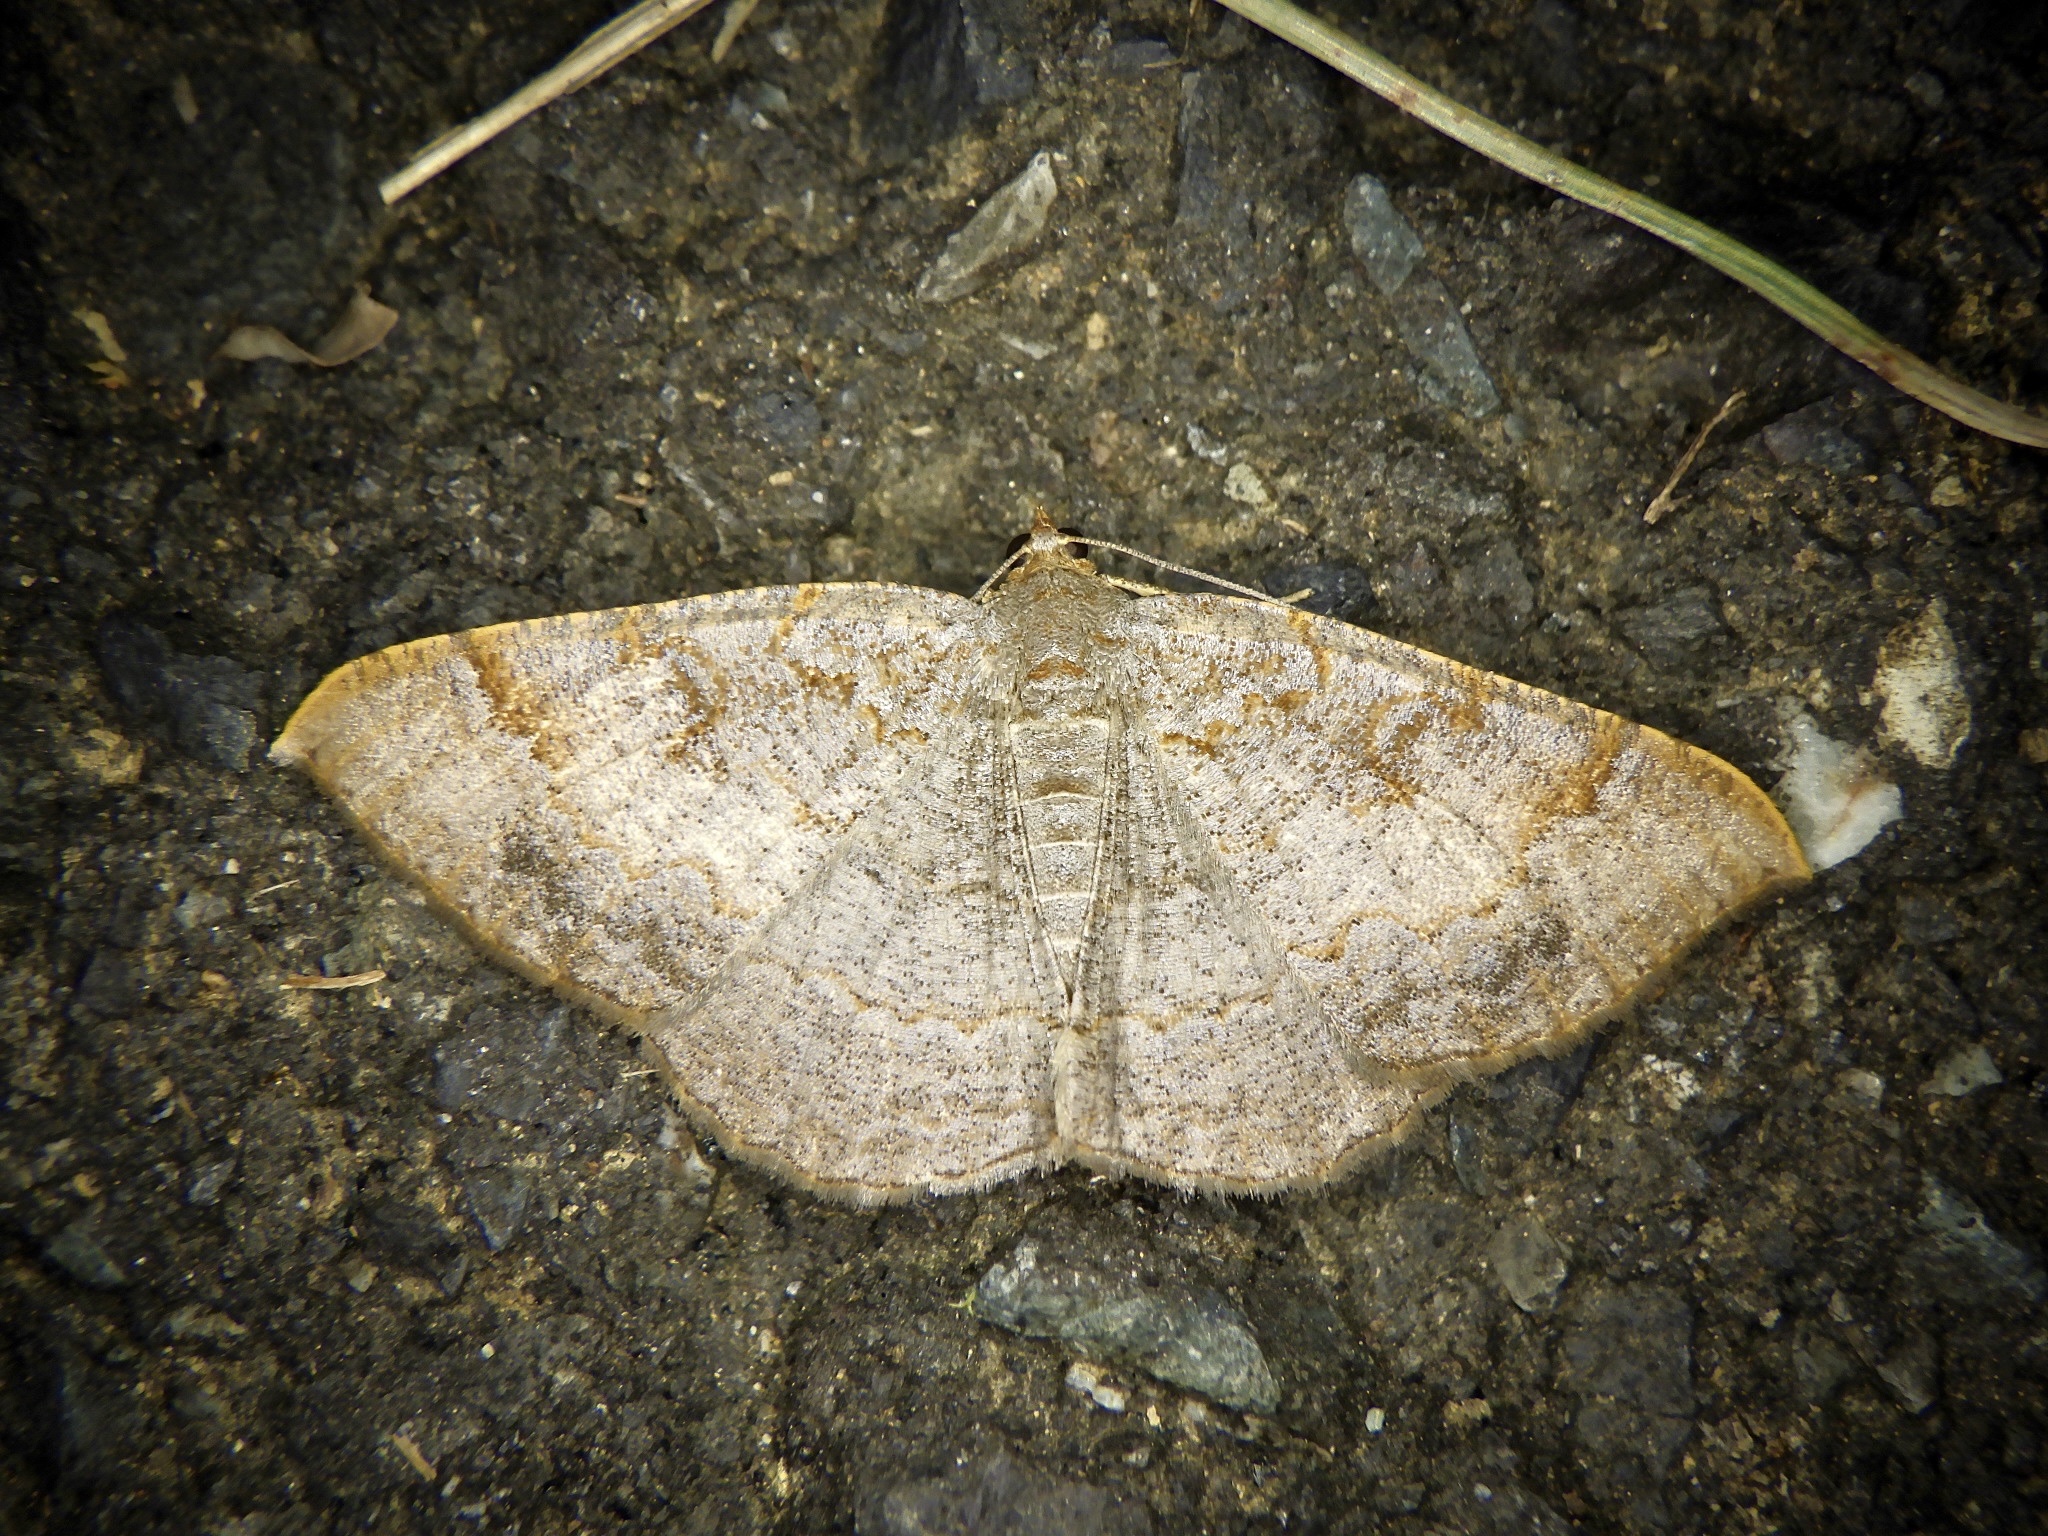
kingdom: Animalia
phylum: Arthropoda
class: Insecta
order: Lepidoptera
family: Geometridae
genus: Hypephyra
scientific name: Hypephyra terrosa
